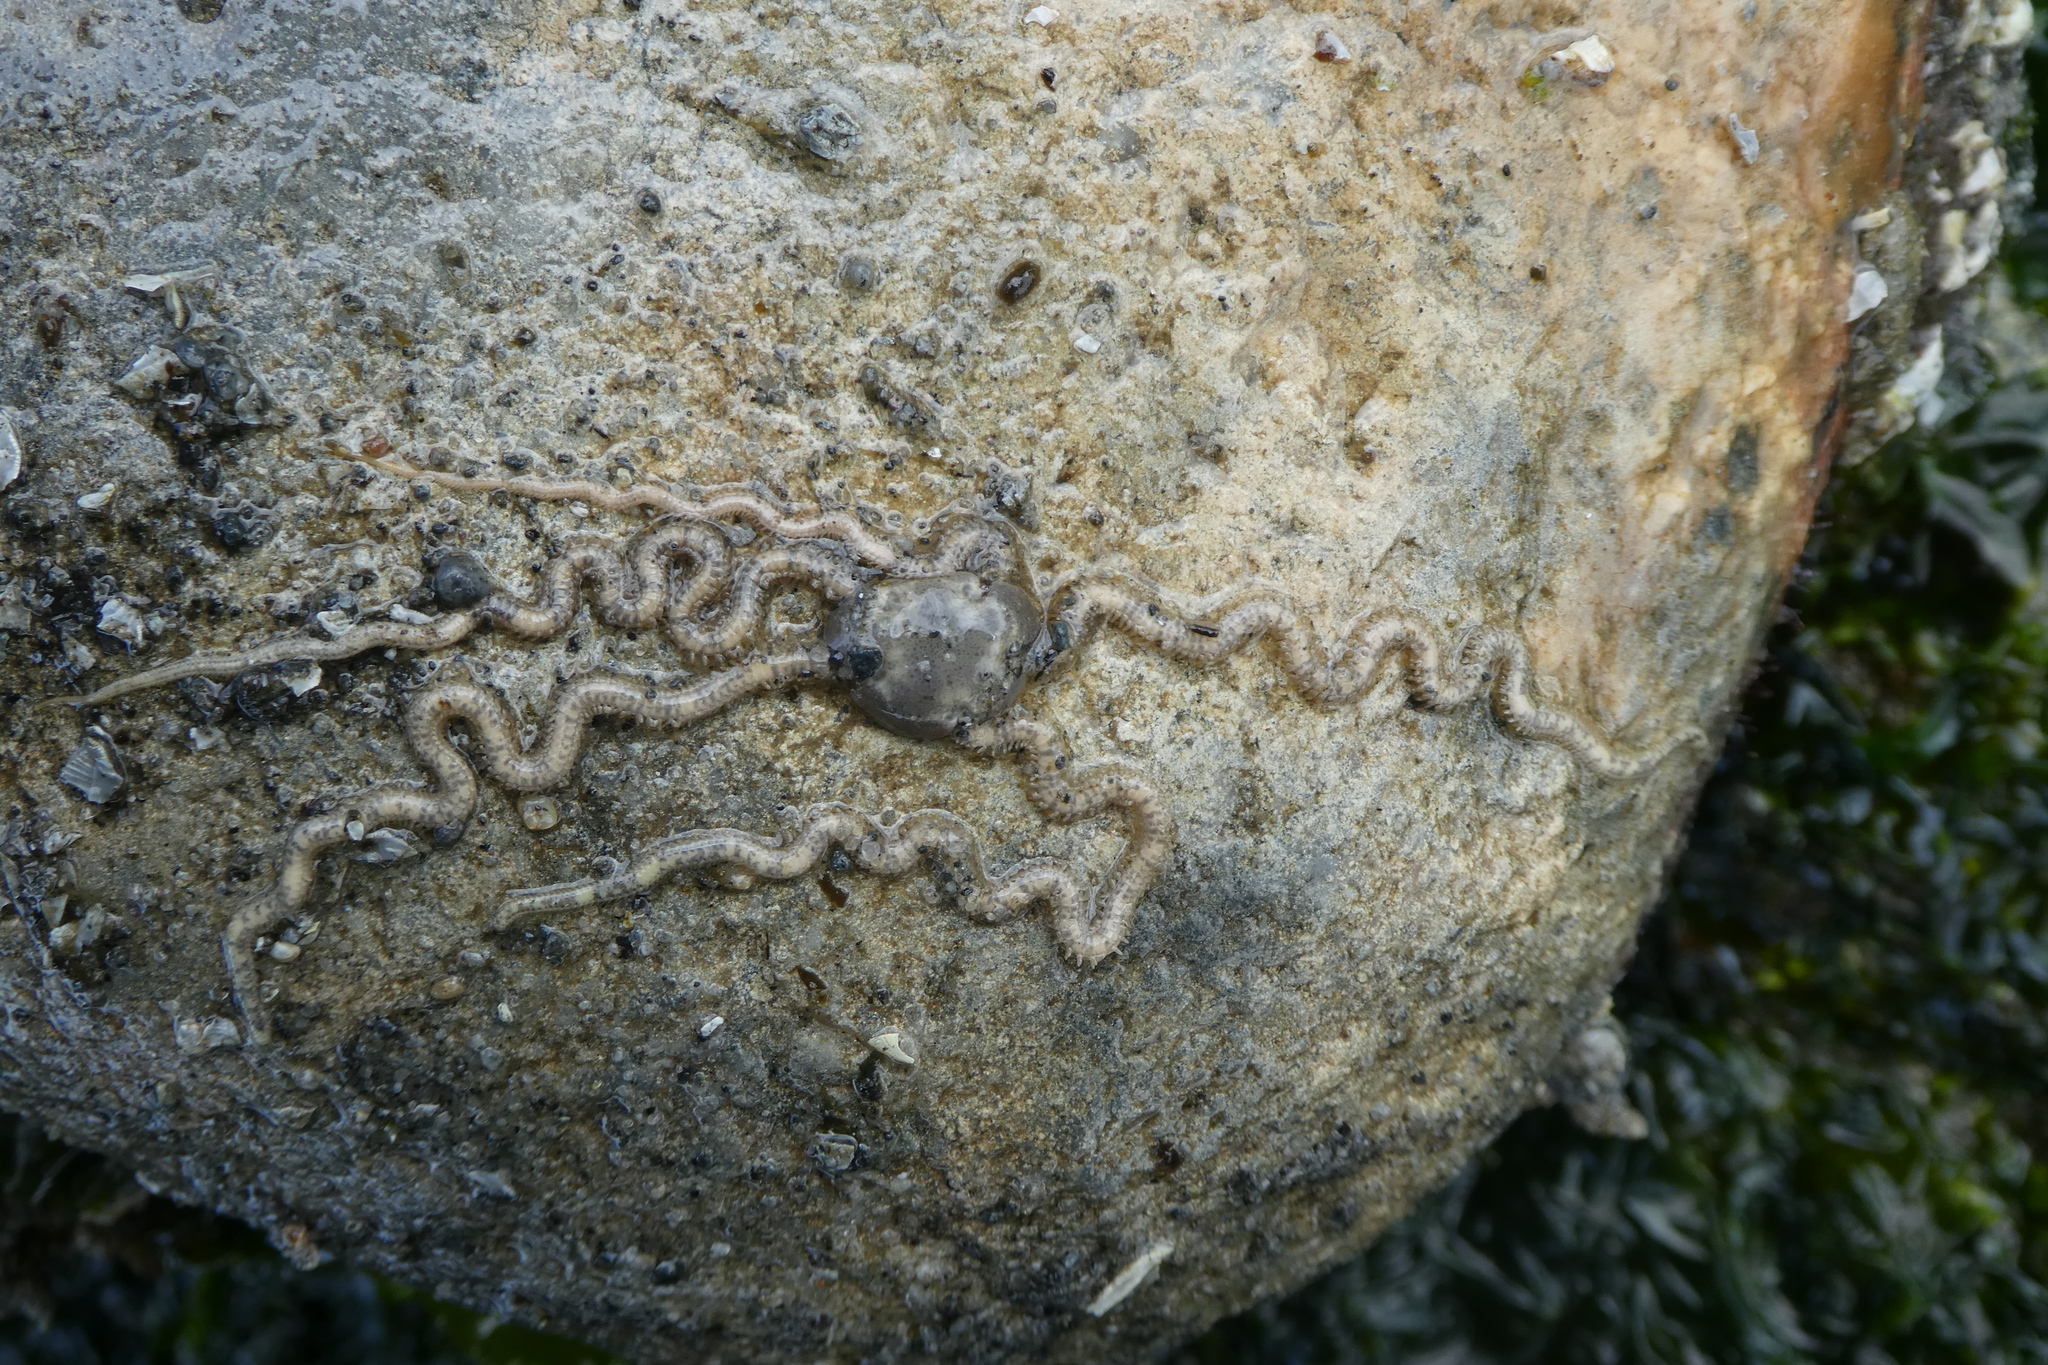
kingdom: Animalia
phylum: Echinodermata
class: Ophiuroidea
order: Amphilepidida
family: Amphiuridae
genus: Amphiodia
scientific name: Amphiodia occidentalis
